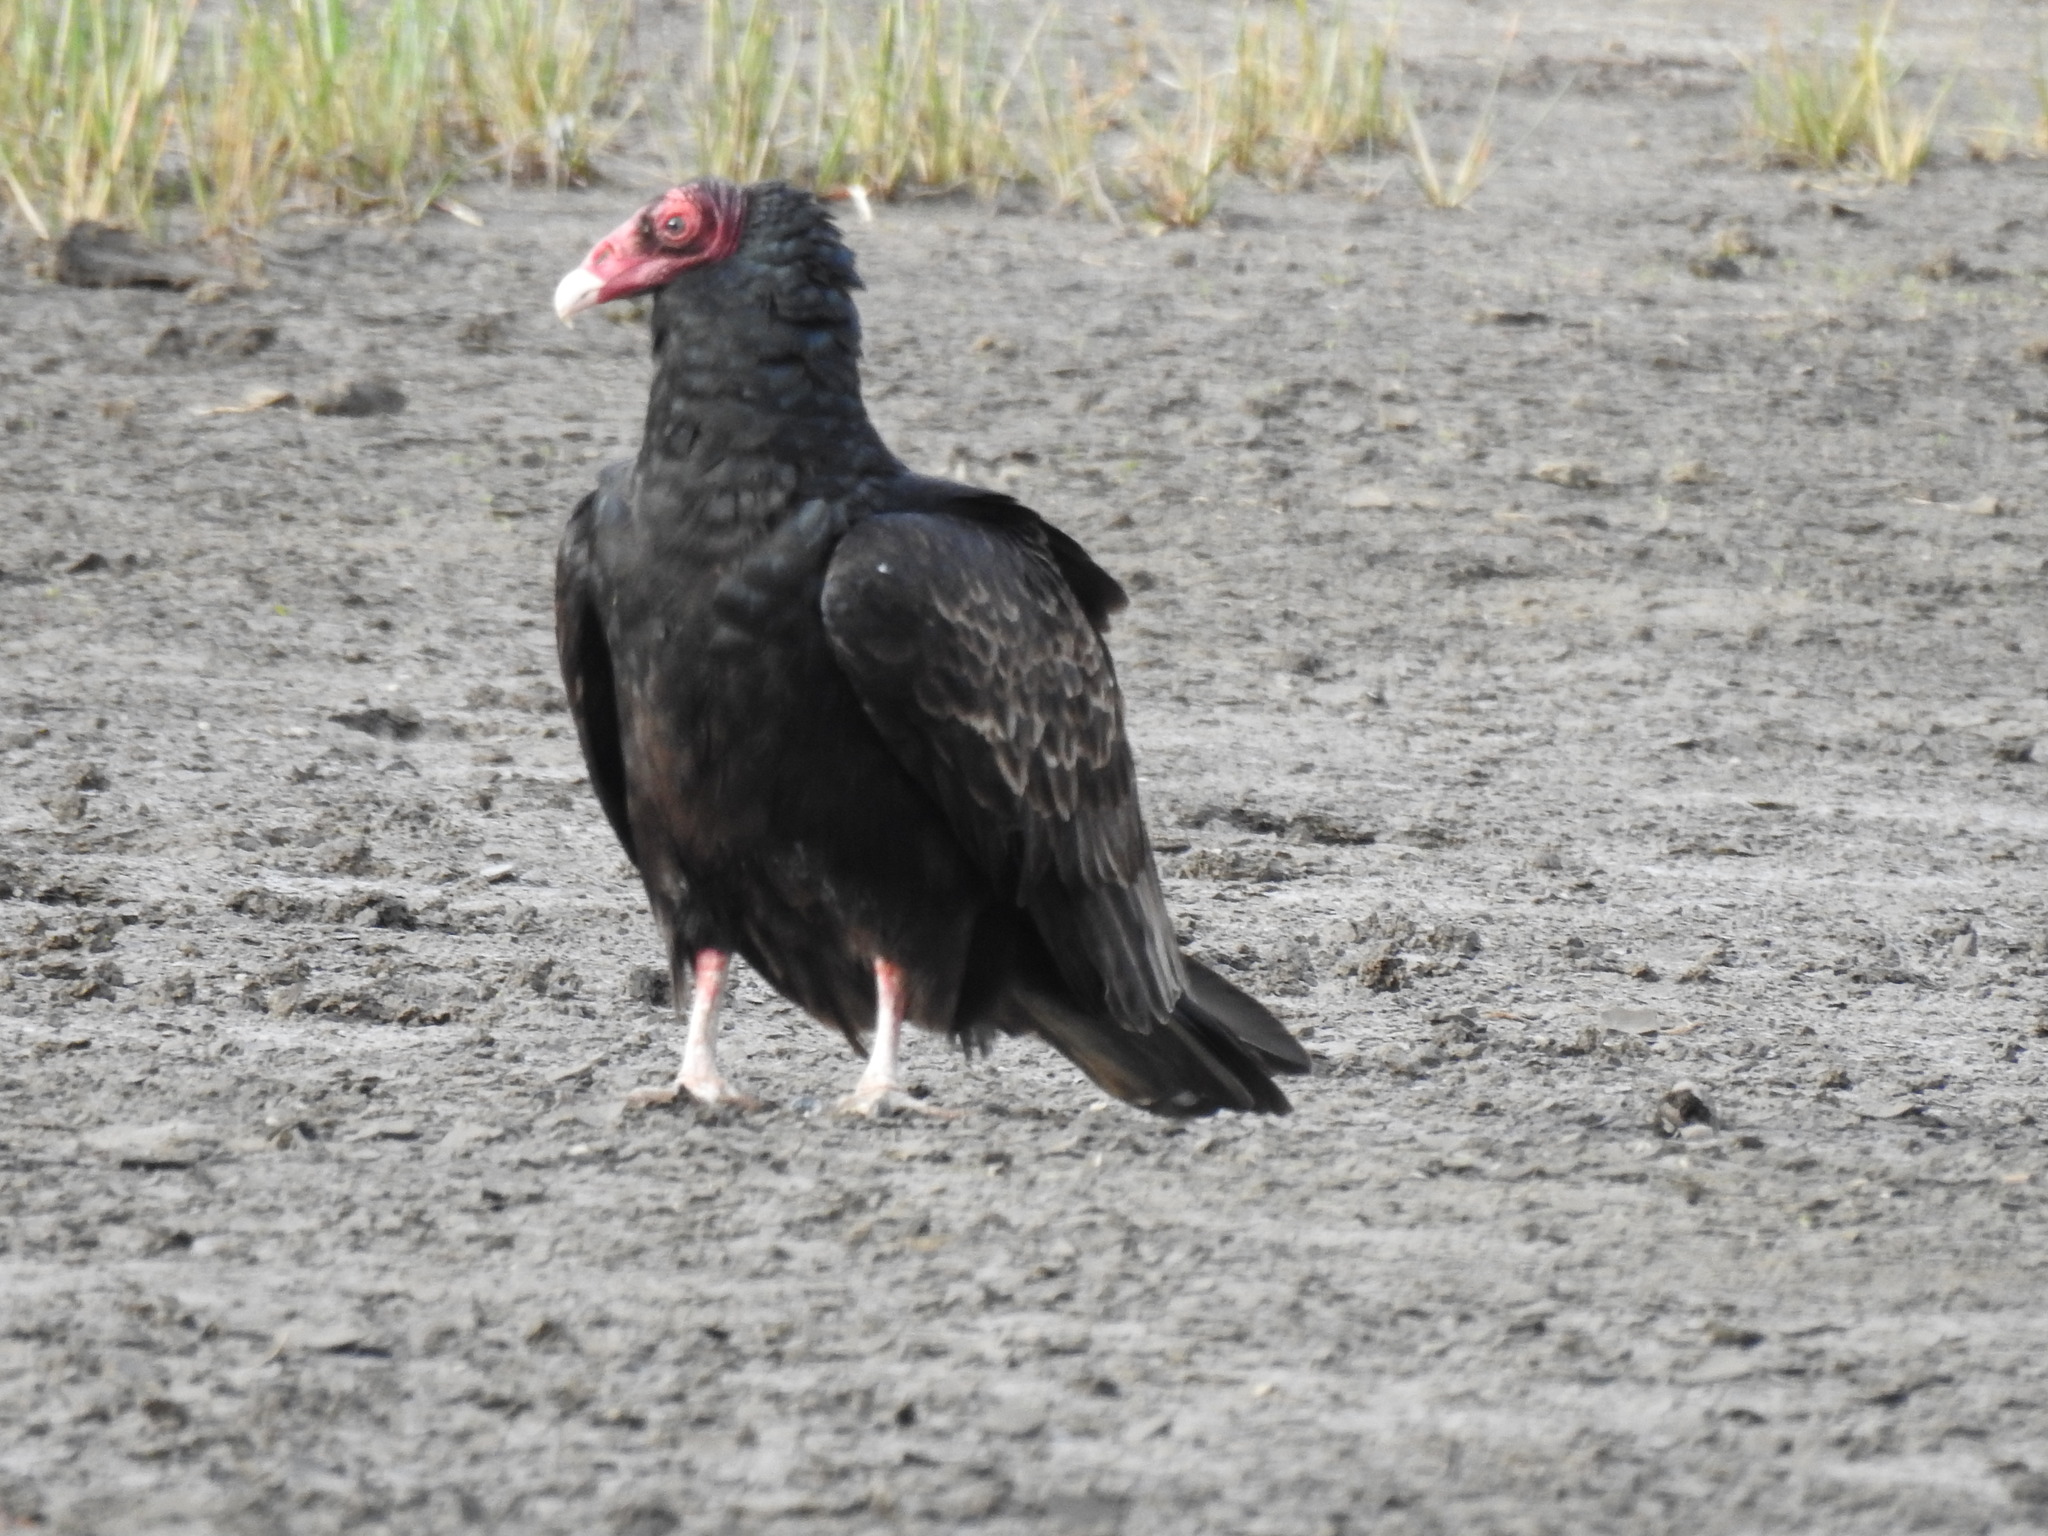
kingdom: Animalia
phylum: Chordata
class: Aves
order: Accipitriformes
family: Cathartidae
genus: Cathartes
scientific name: Cathartes aura
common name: Turkey vulture
